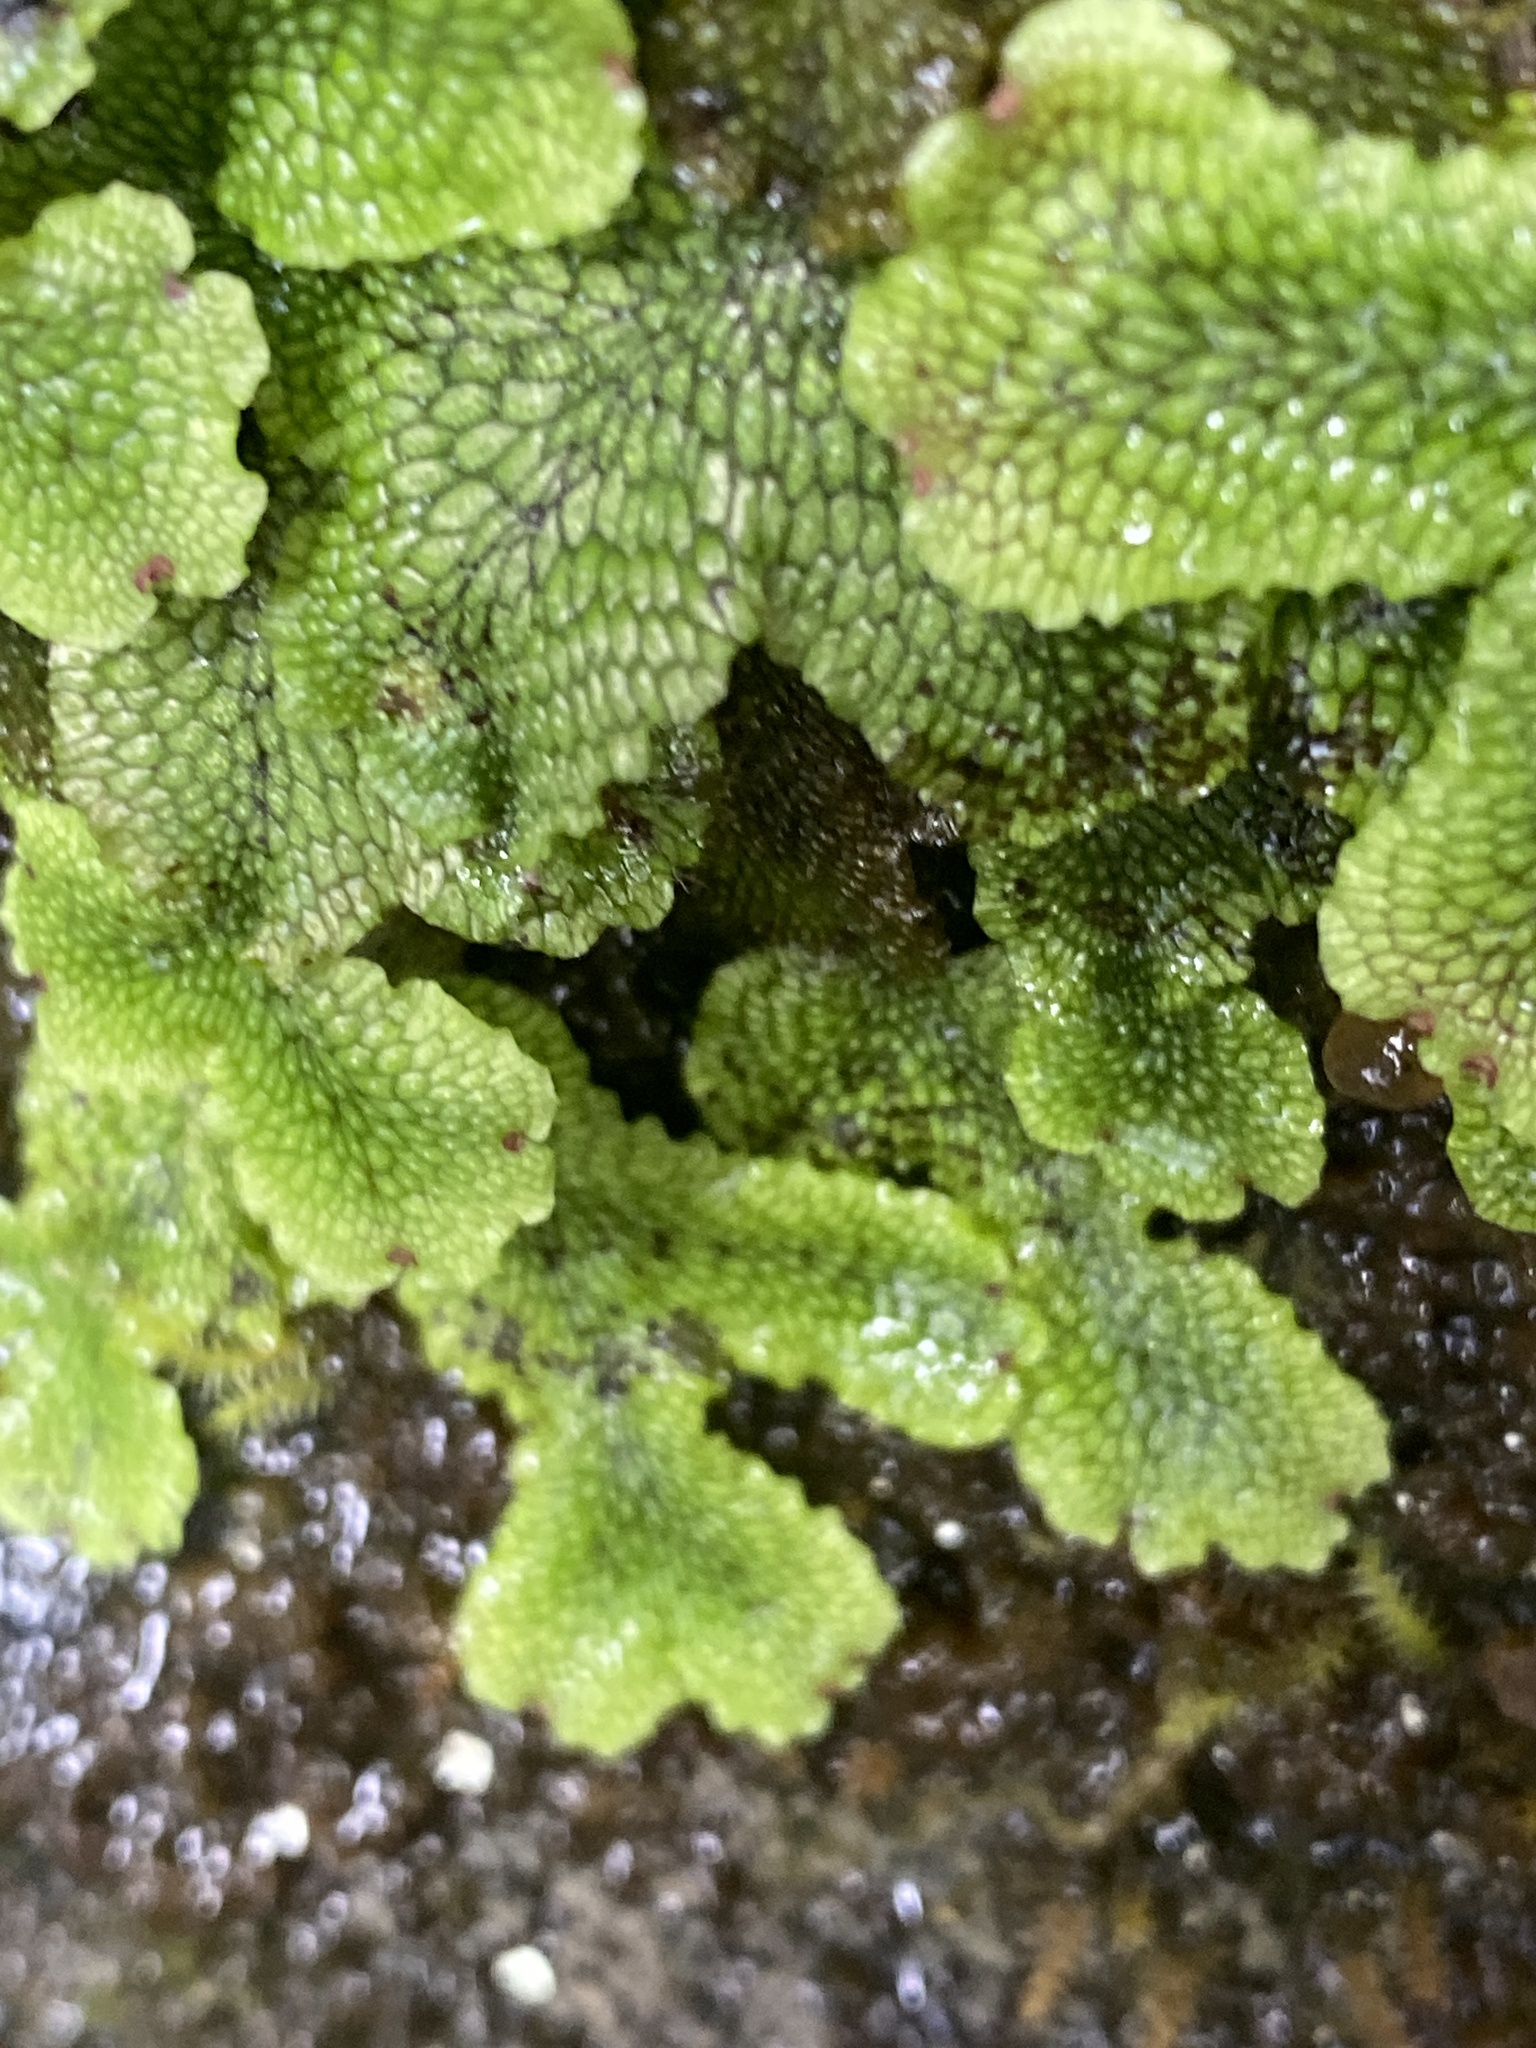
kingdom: Plantae
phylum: Marchantiophyta
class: Marchantiopsida
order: Marchantiales
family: Conocephalaceae
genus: Conocephalum
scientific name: Conocephalum salebrosum
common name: Cat-tongue liverwort
